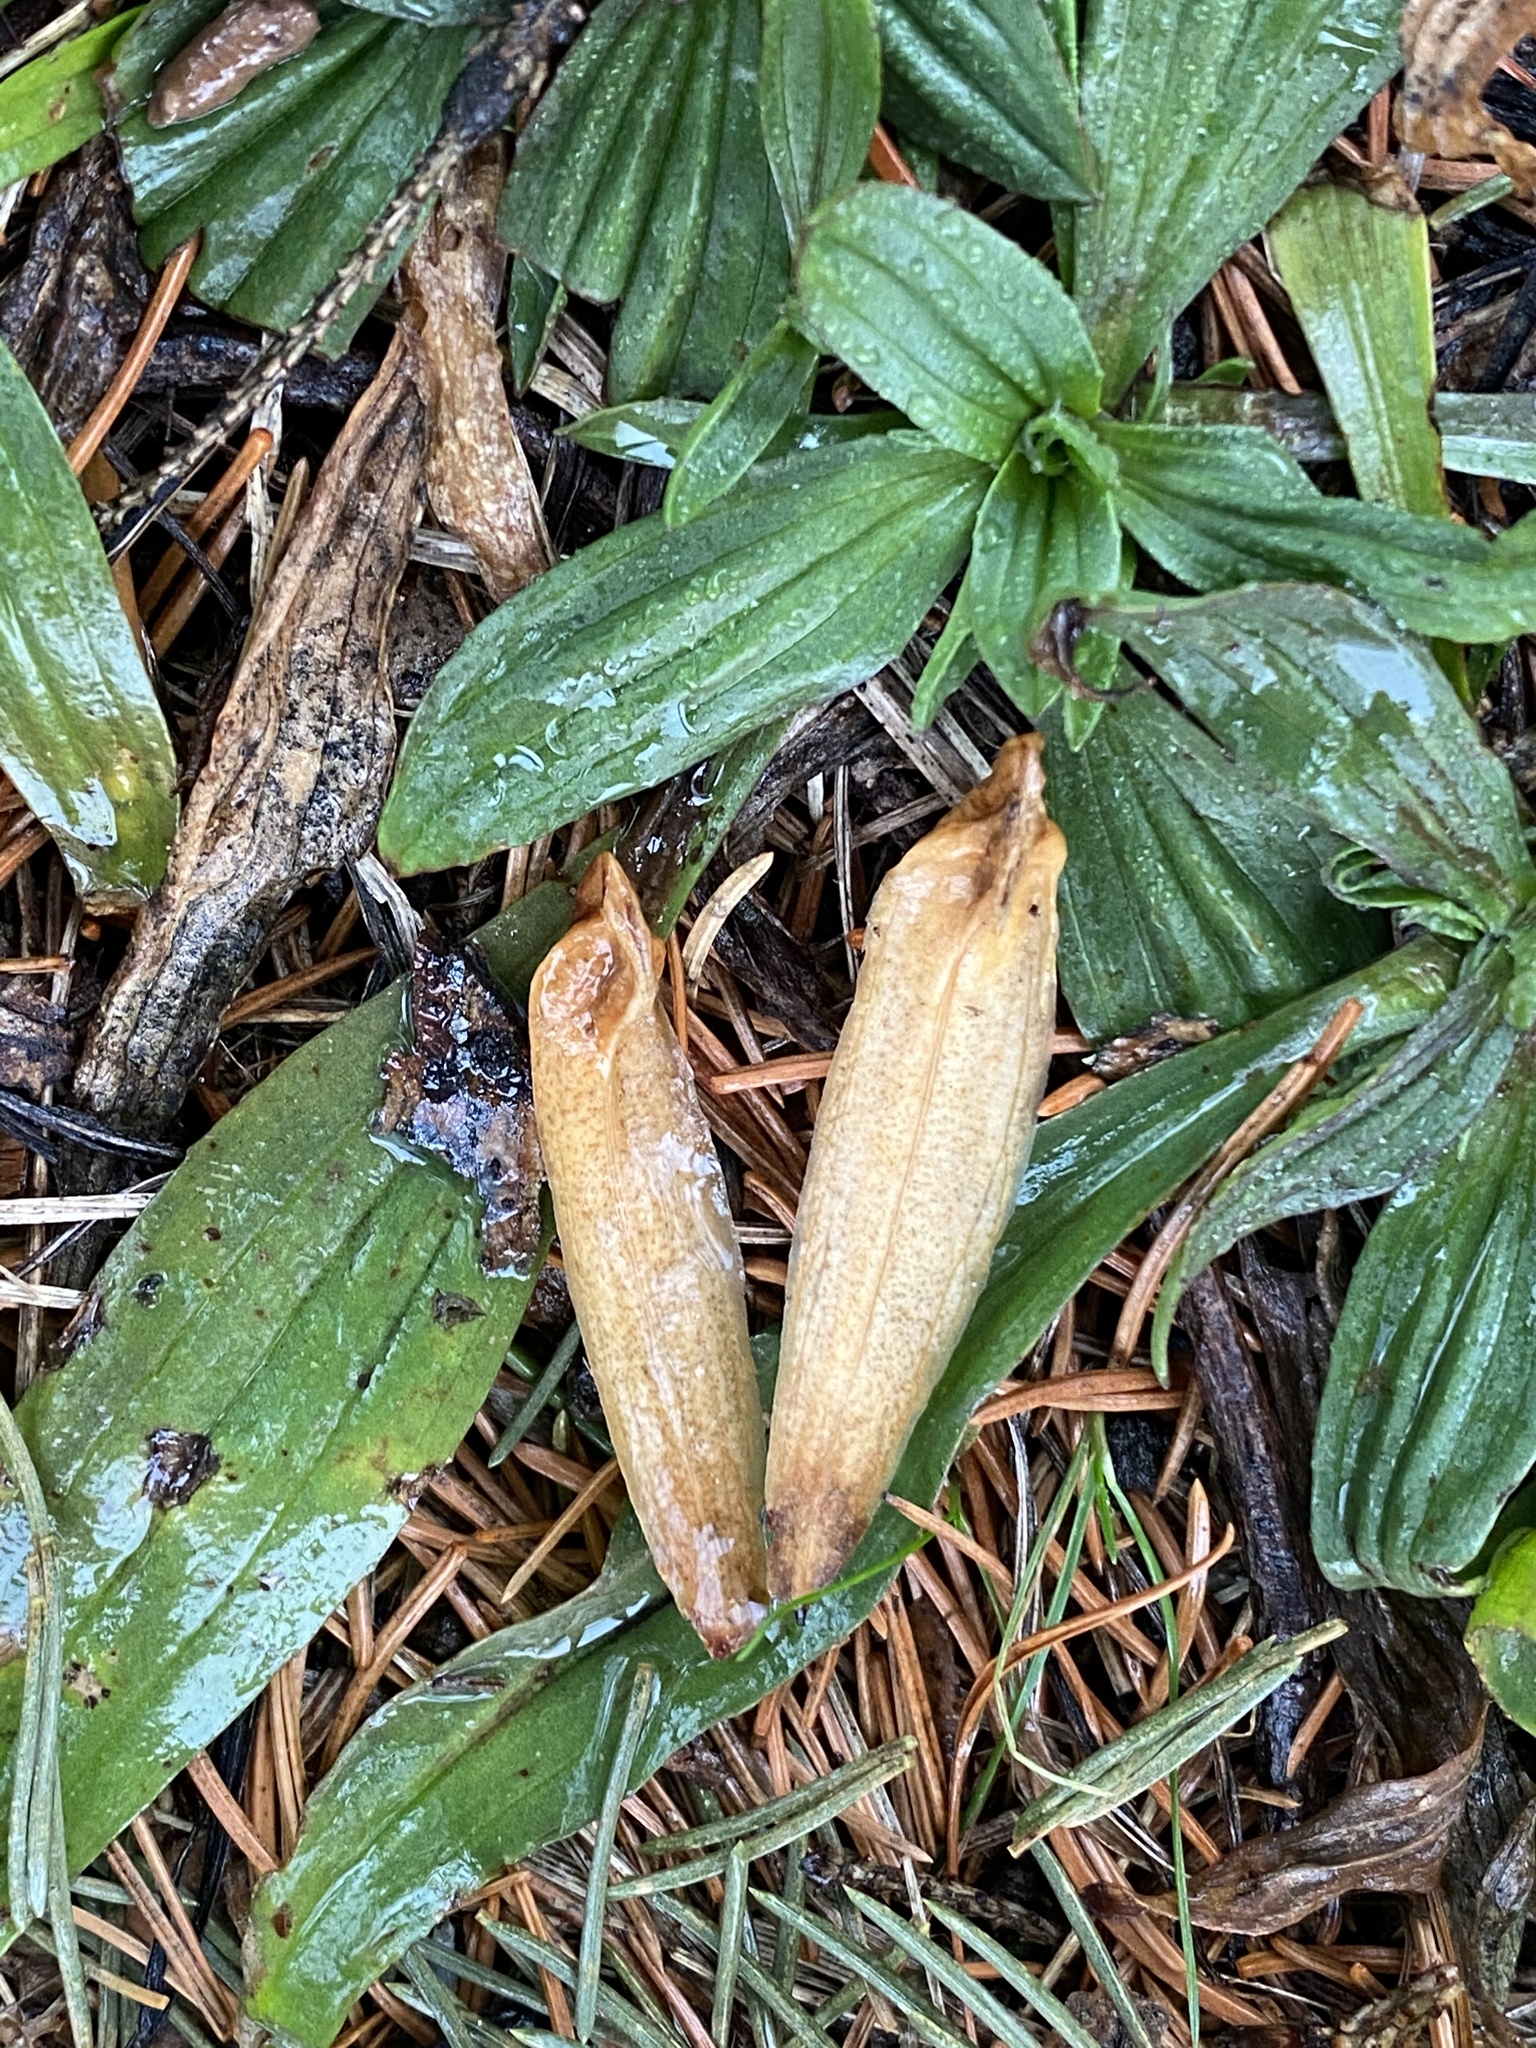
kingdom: Plantae
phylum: Tracheophyta
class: Magnoliopsida
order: Magnoliales
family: Magnoliaceae
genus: Liriodendron
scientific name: Liriodendron tulipifera
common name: Tulip tree
